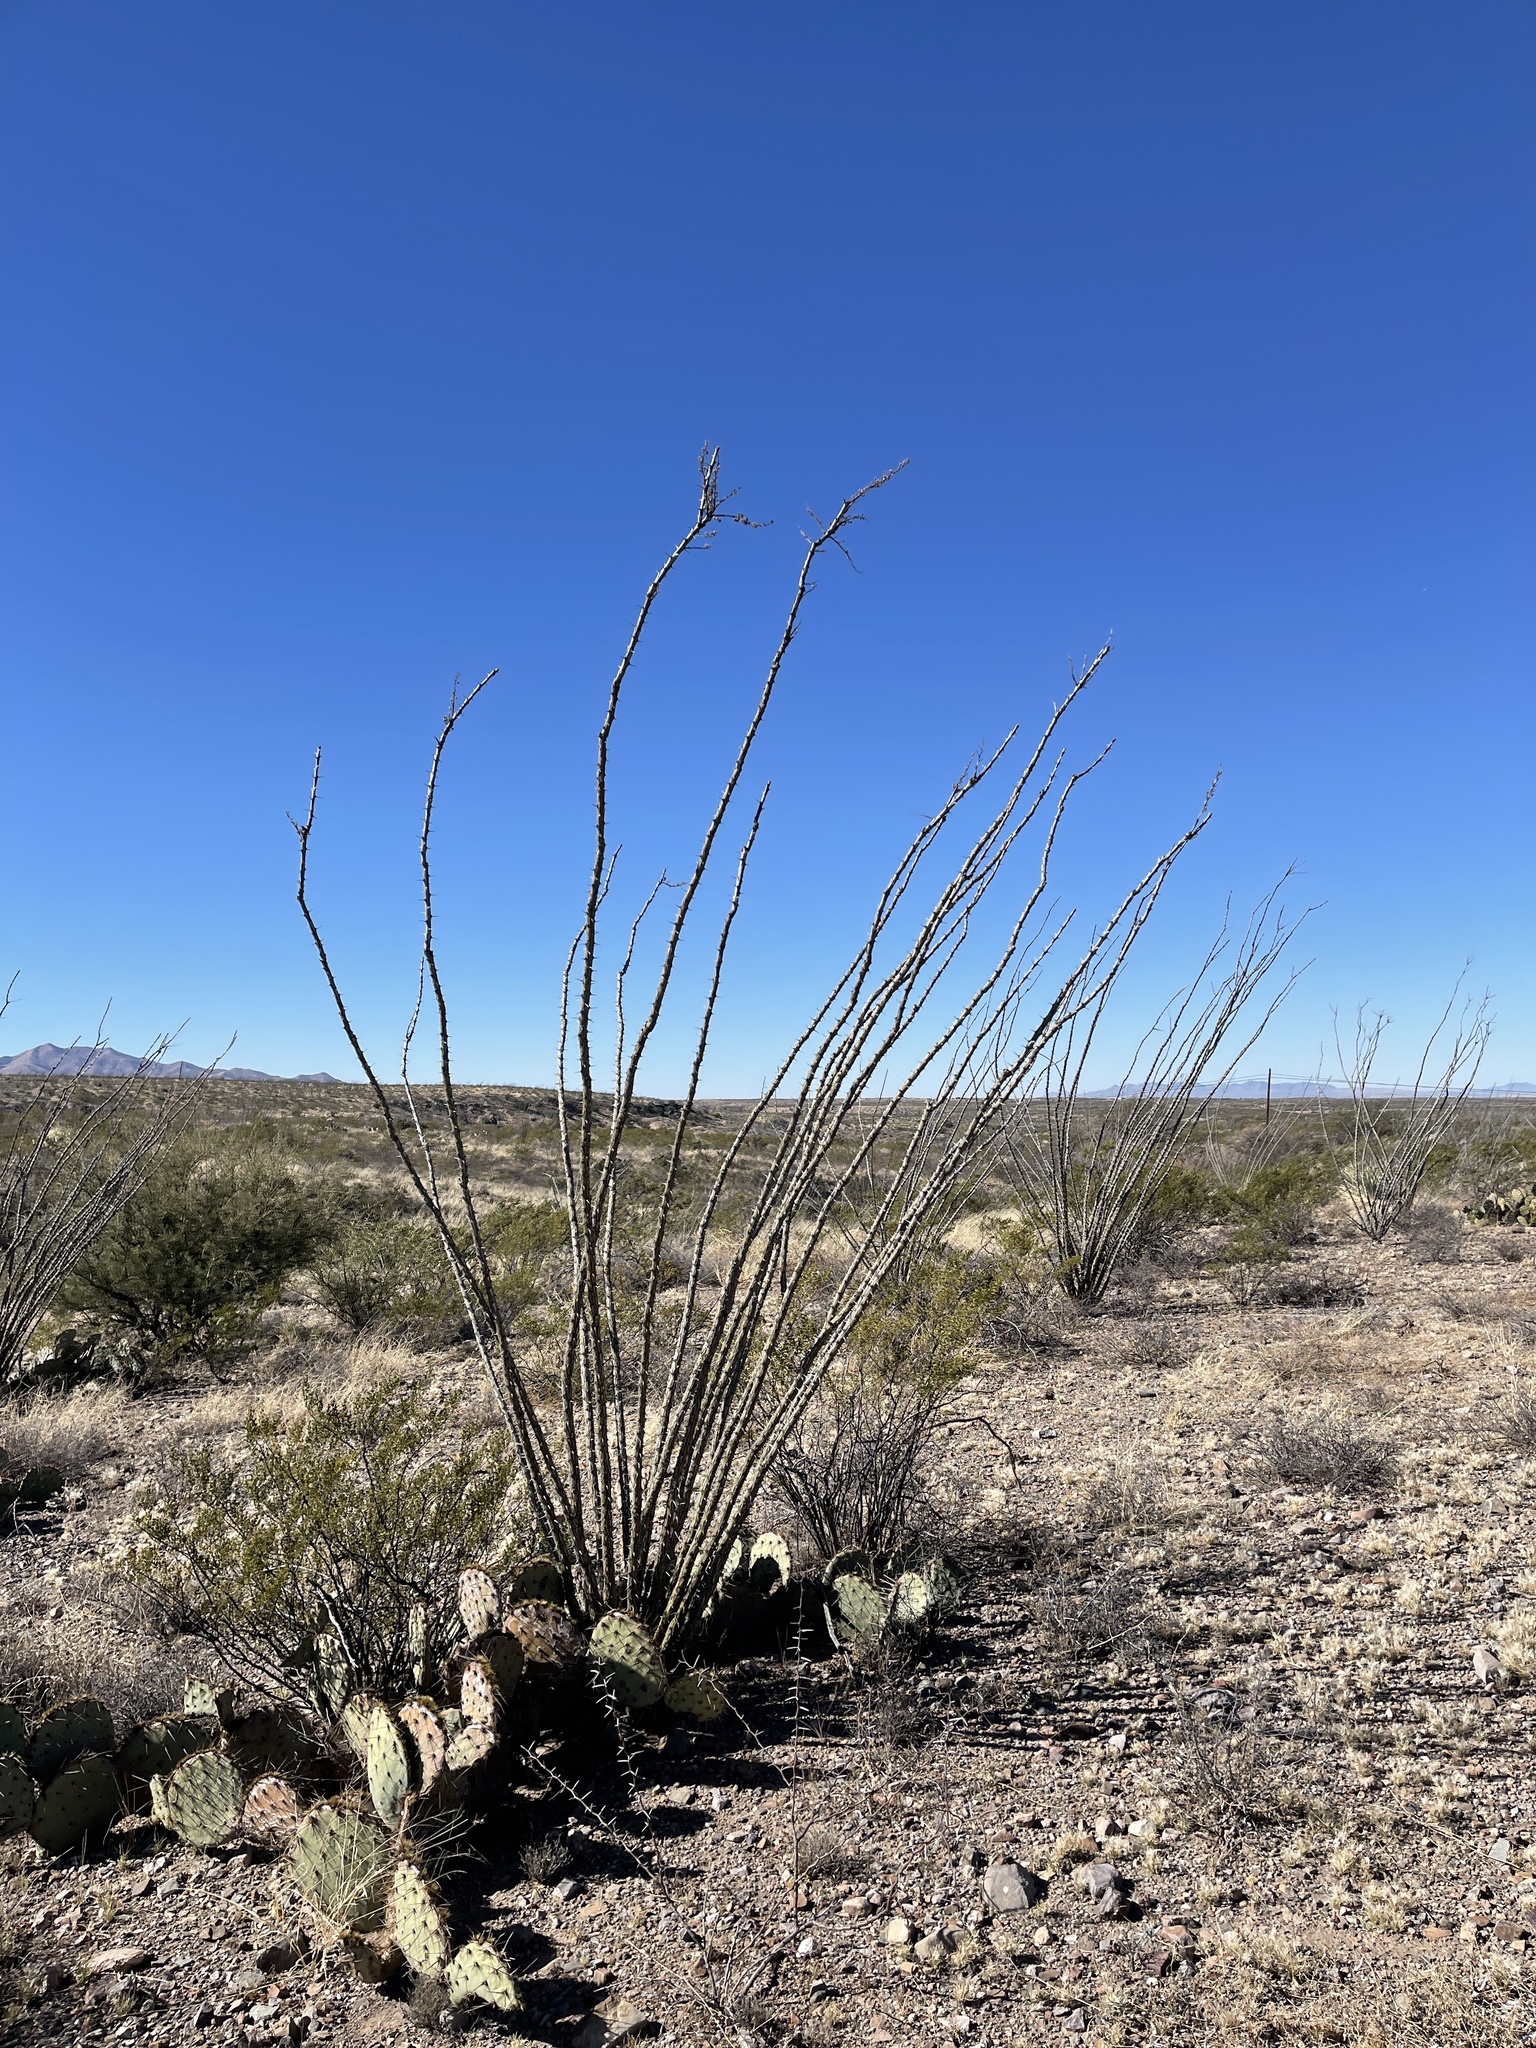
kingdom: Plantae
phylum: Tracheophyta
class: Magnoliopsida
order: Ericales
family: Fouquieriaceae
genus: Fouquieria
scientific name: Fouquieria splendens
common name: Vine-cactus
